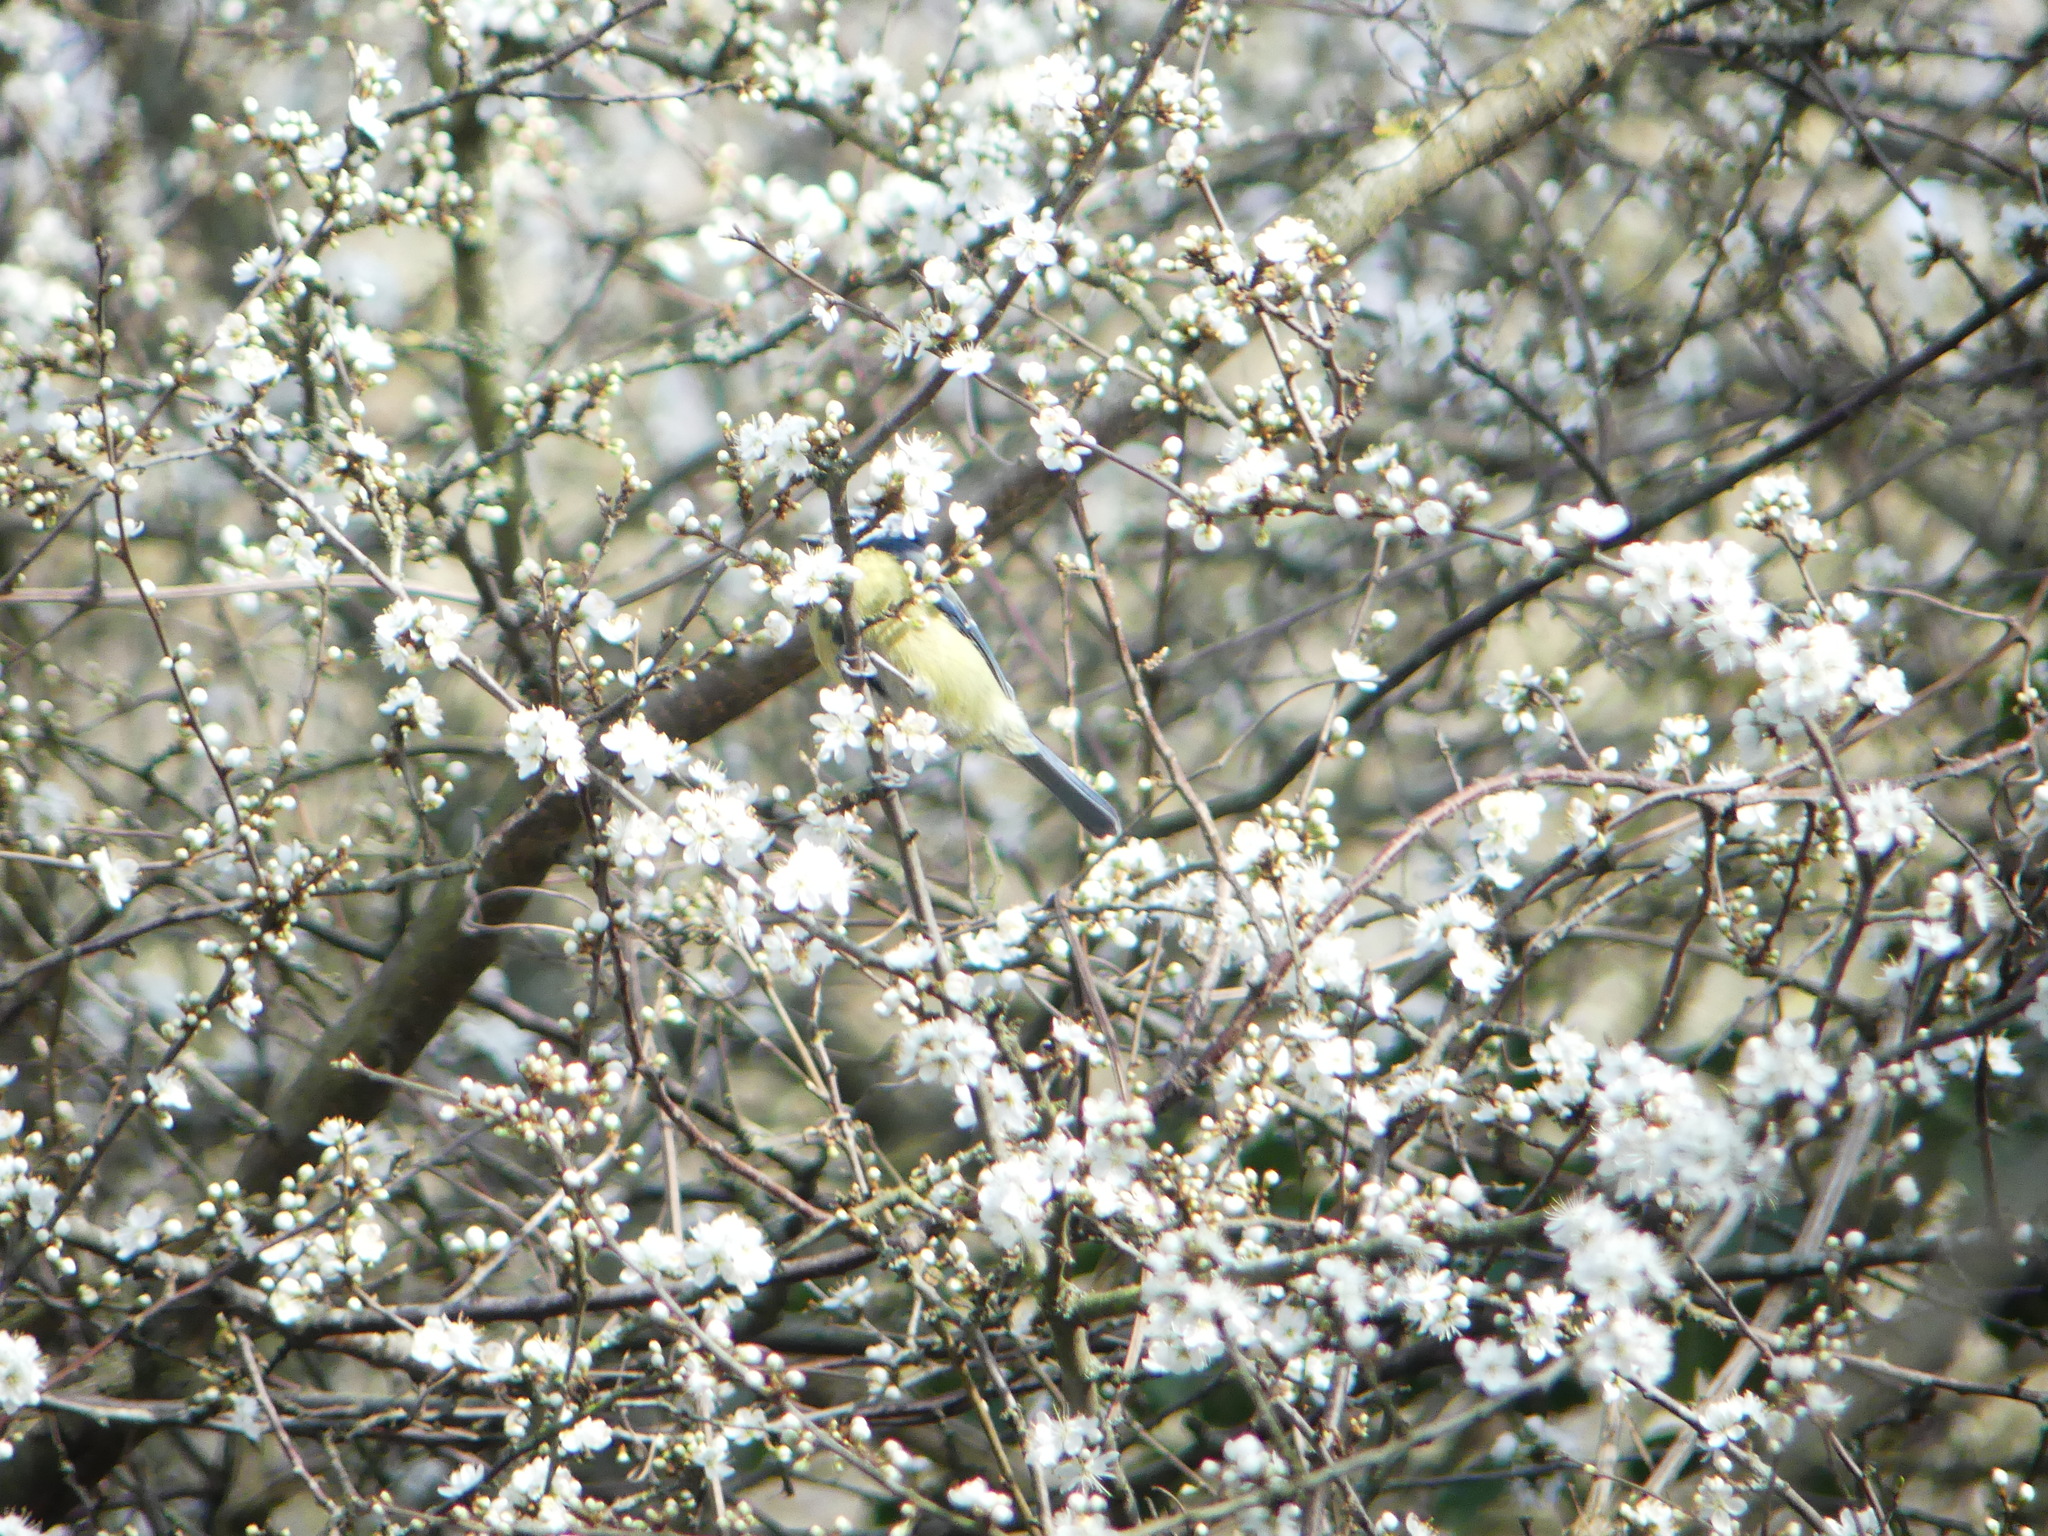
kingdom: Animalia
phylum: Chordata
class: Aves
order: Passeriformes
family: Paridae
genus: Cyanistes
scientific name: Cyanistes caeruleus
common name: Eurasian blue tit
